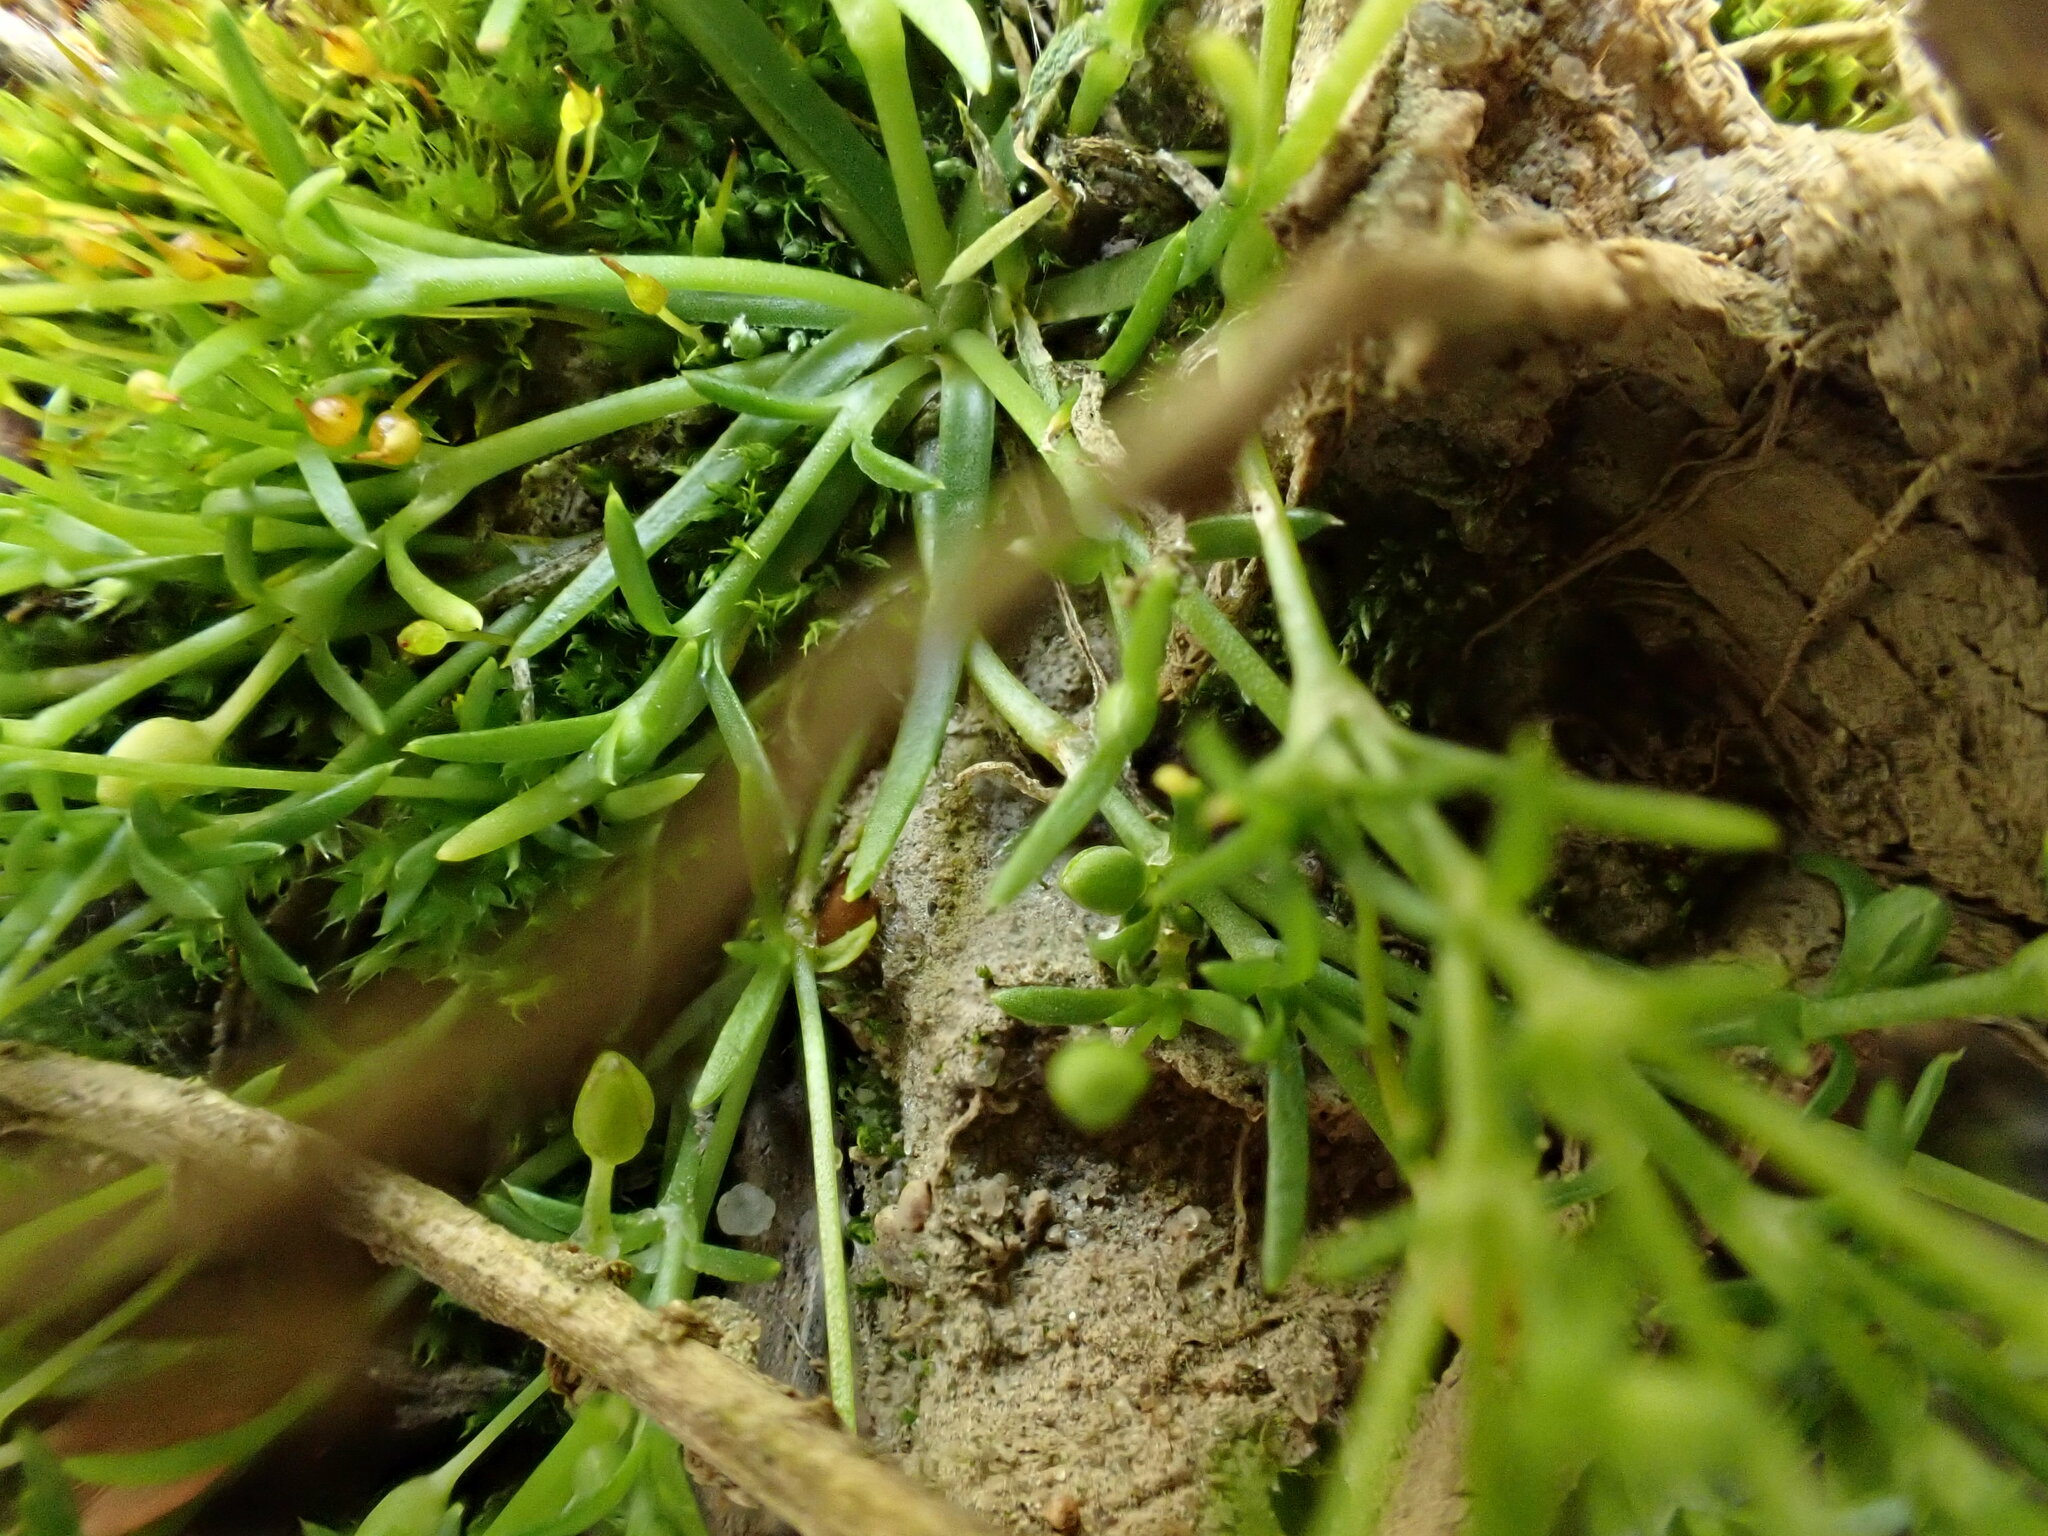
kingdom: Plantae
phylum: Tracheophyta
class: Magnoliopsida
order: Caryophyllales
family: Caryophyllaceae
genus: Sagina
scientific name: Sagina procumbens
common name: Procumbent pearlwort
